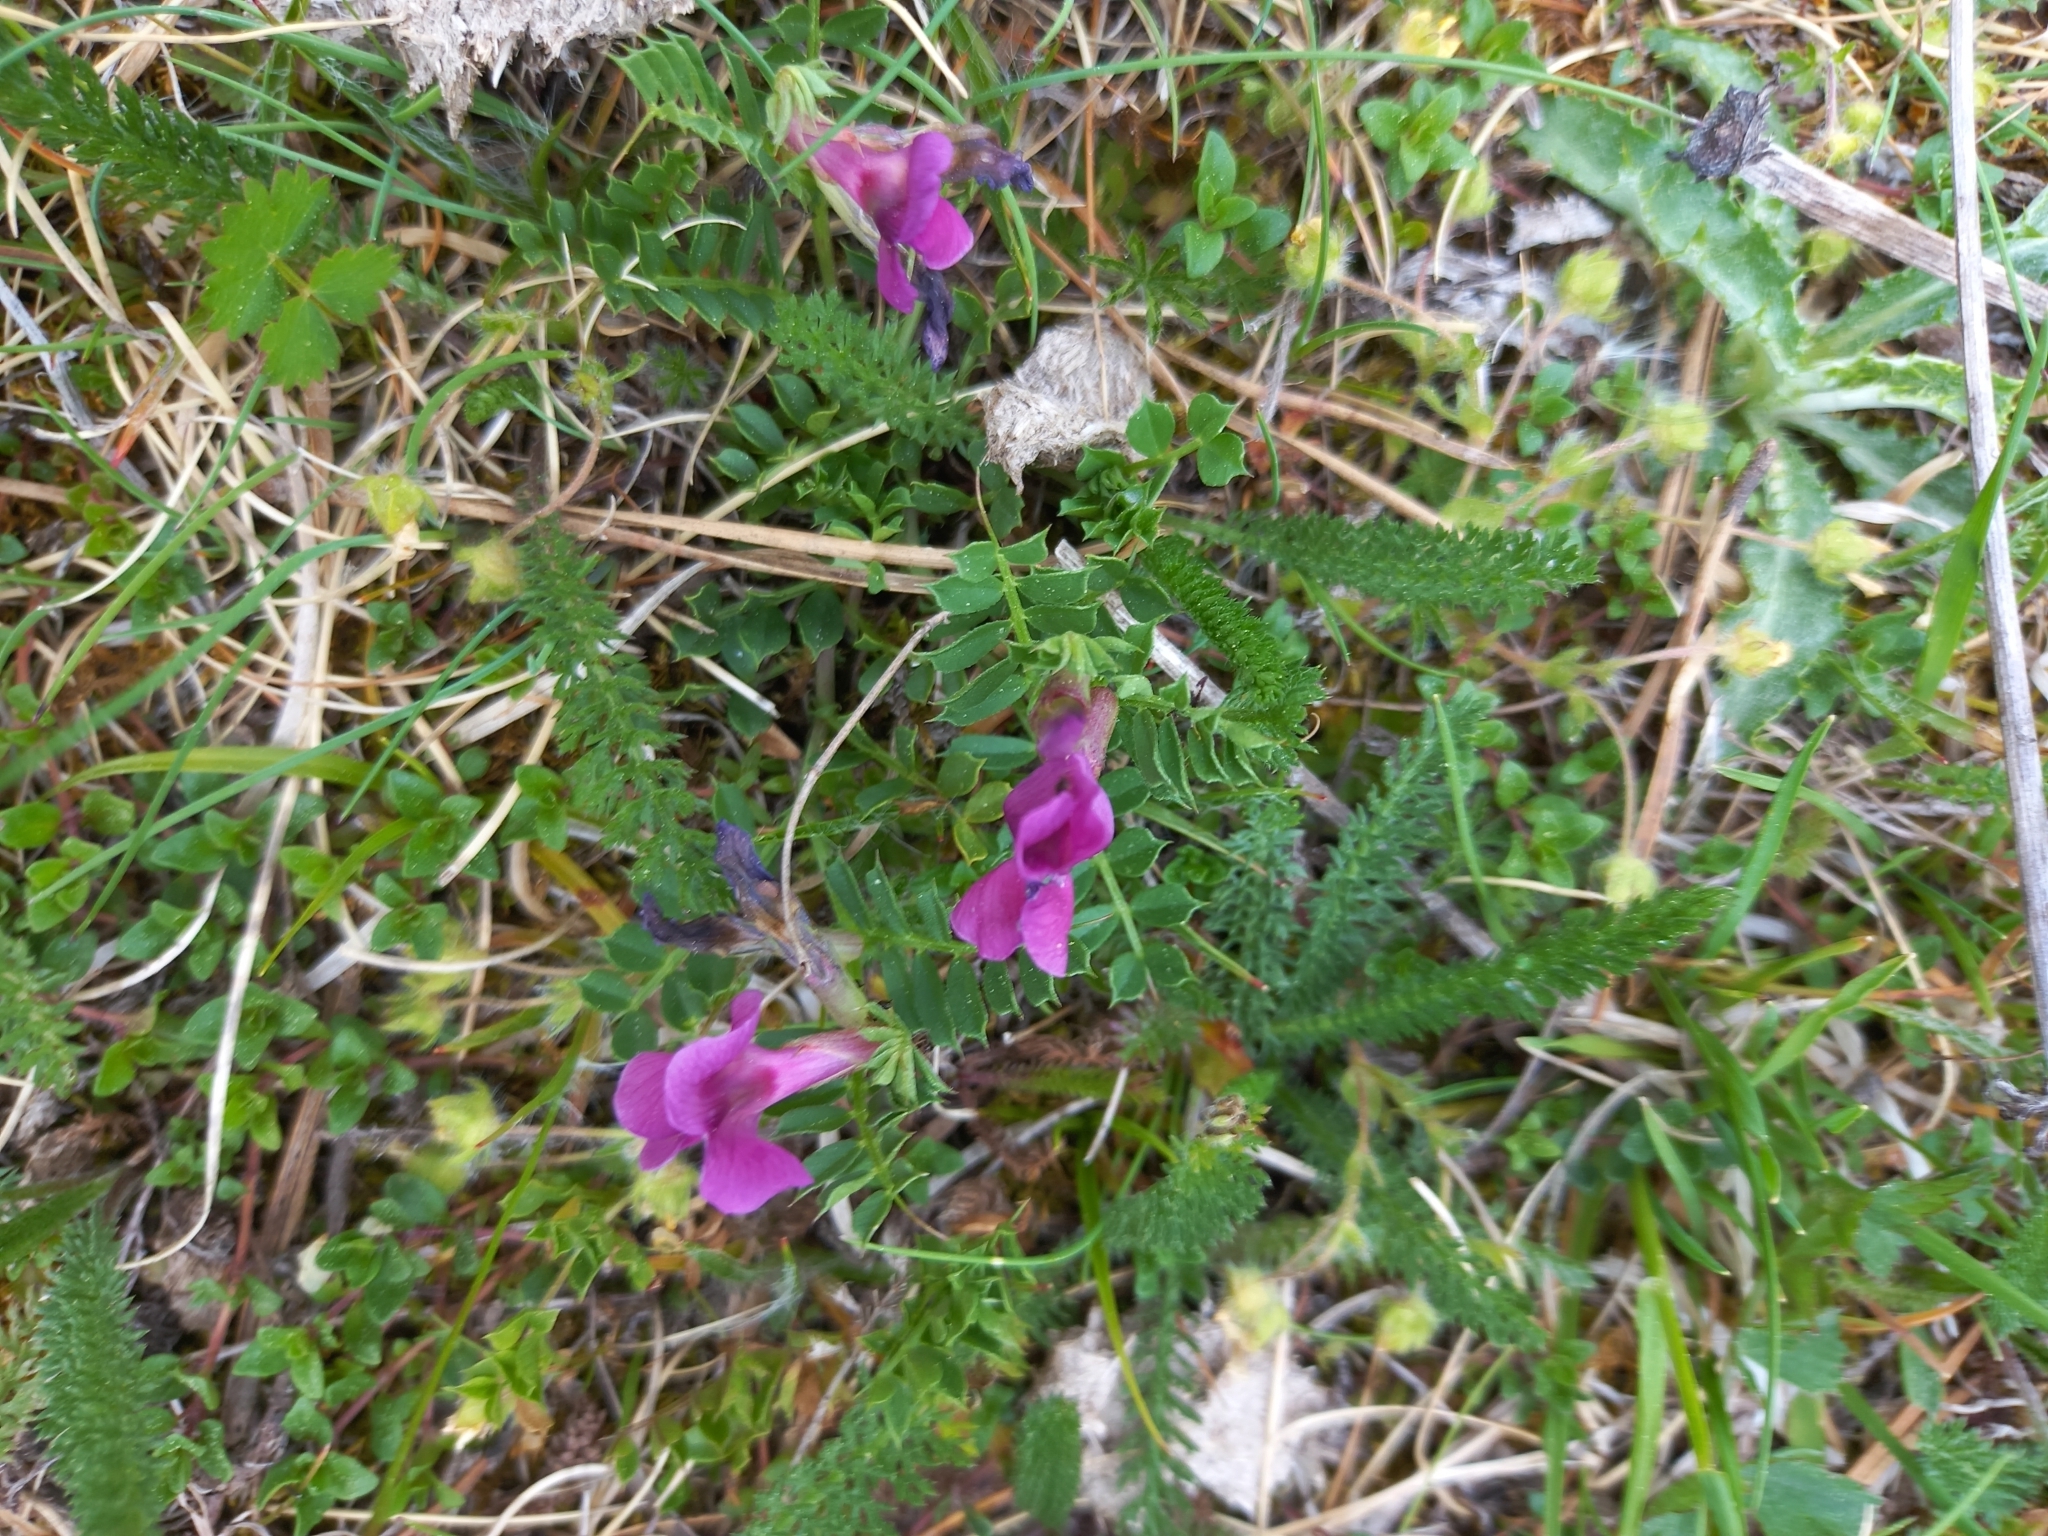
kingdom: Plantae
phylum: Tracheophyta
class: Magnoliopsida
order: Fabales
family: Fabaceae
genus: Vicia
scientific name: Vicia pyrenaica
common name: Pyrenean vetch
